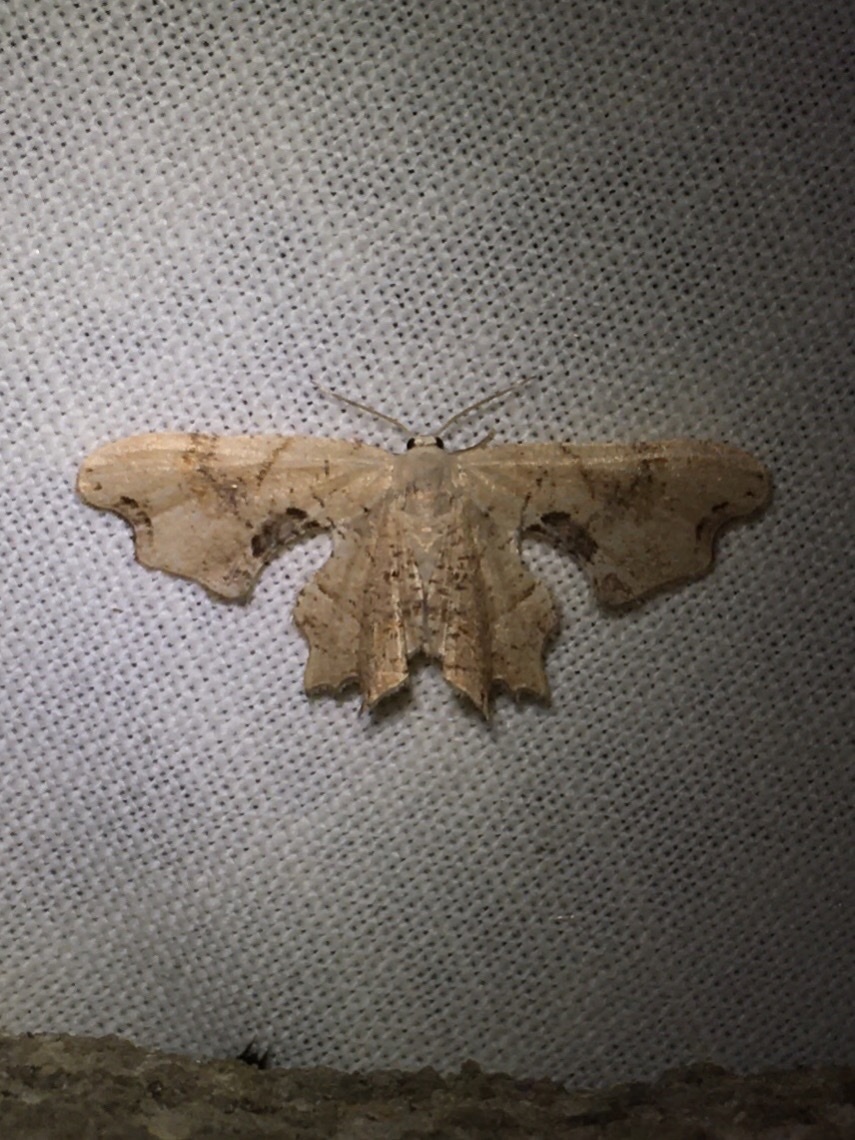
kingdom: Animalia
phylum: Arthropoda
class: Insecta
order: Lepidoptera
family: Uraniidae
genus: Epiplema
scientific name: Epiplema Calledapteryx dryopterata
